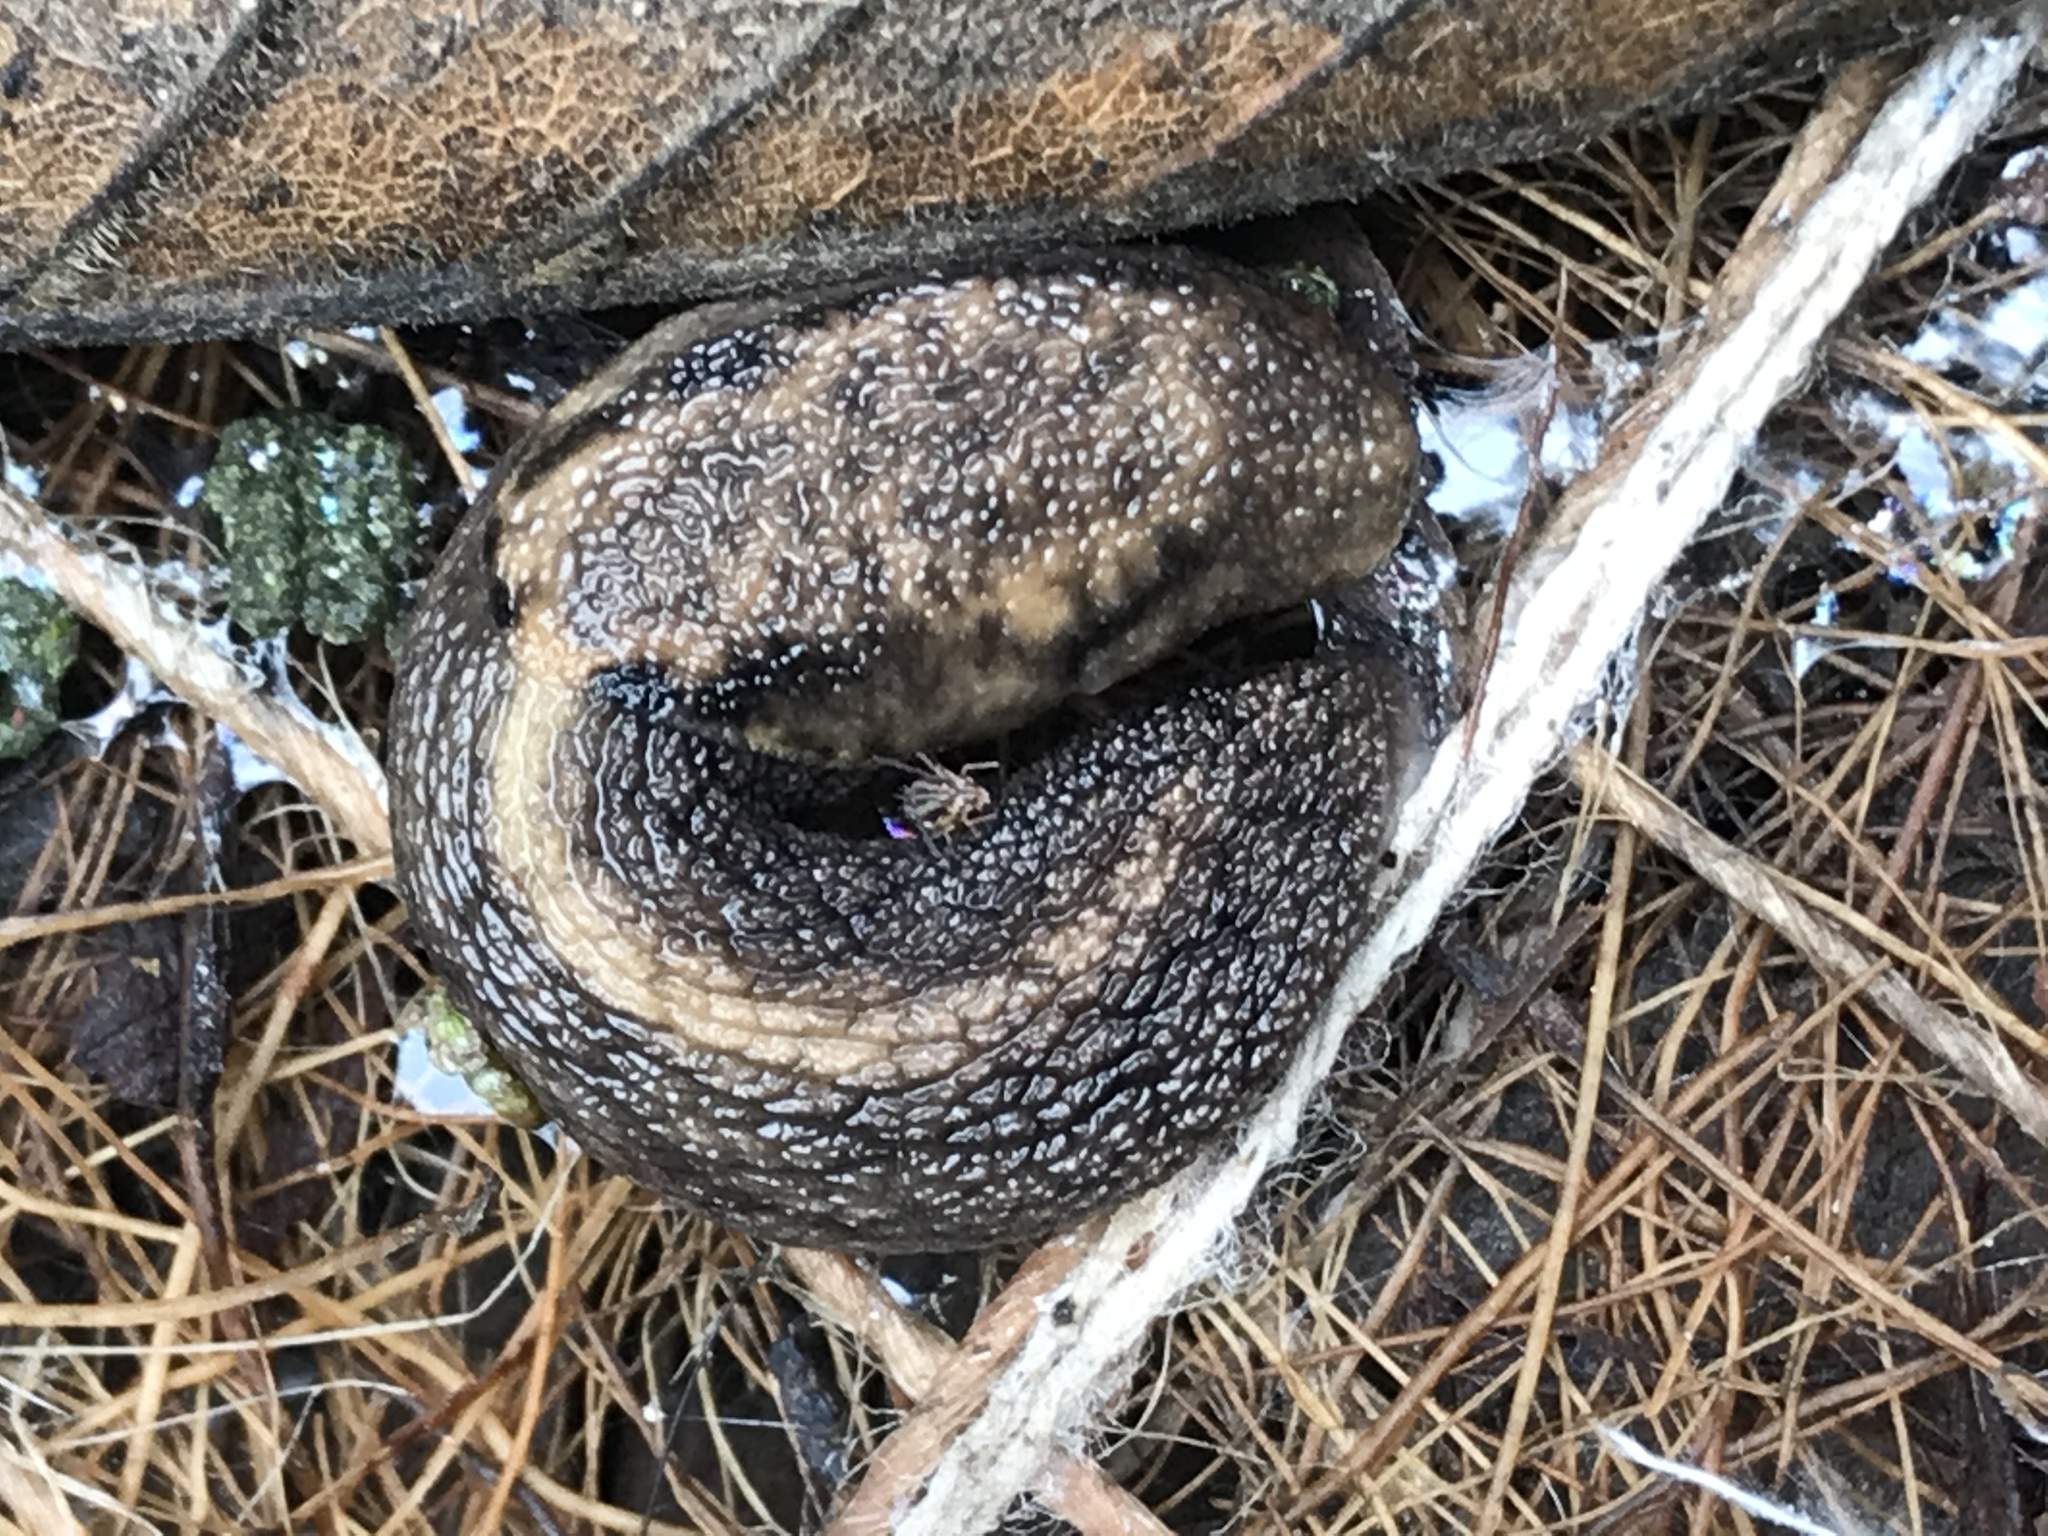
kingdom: Animalia
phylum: Mollusca
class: Gastropoda
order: Stylommatophora
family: Ariolimacidae
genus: Prophysaon
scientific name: Prophysaon andersonii
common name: Reticulate taildropper
